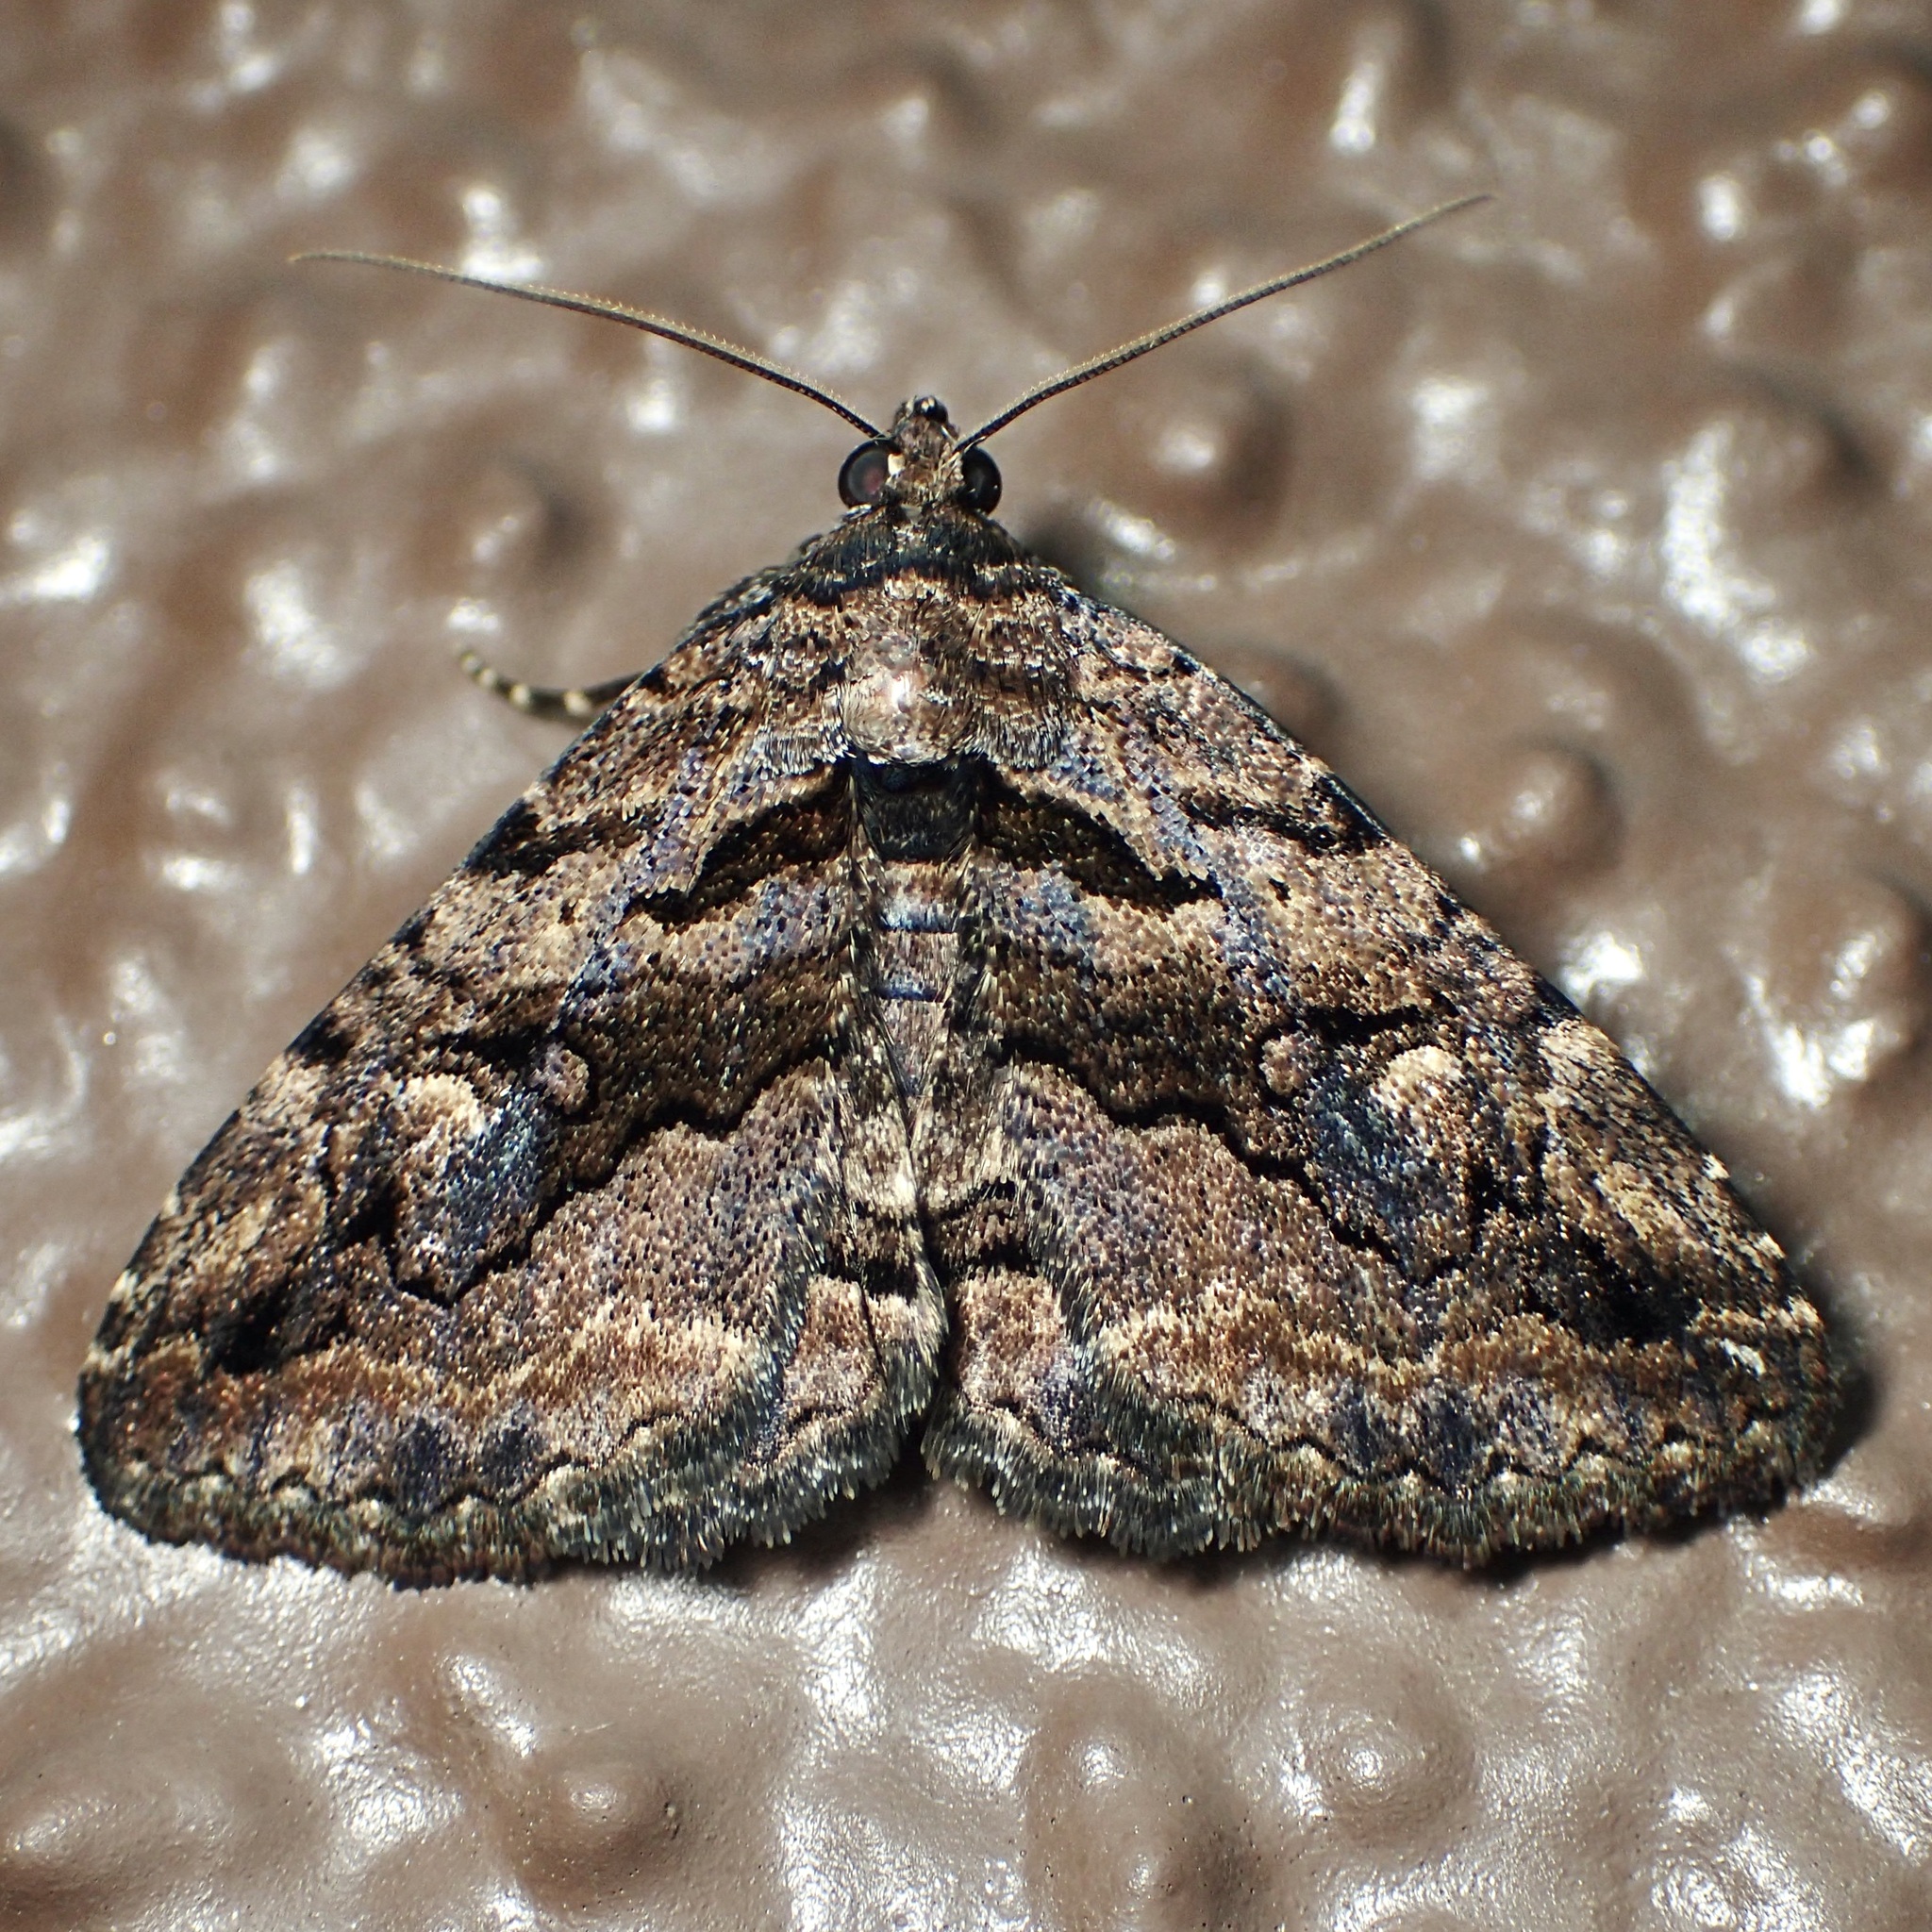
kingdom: Animalia
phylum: Arthropoda
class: Insecta
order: Lepidoptera
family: Erebidae
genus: Zaleops
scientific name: Zaleops umbrina
